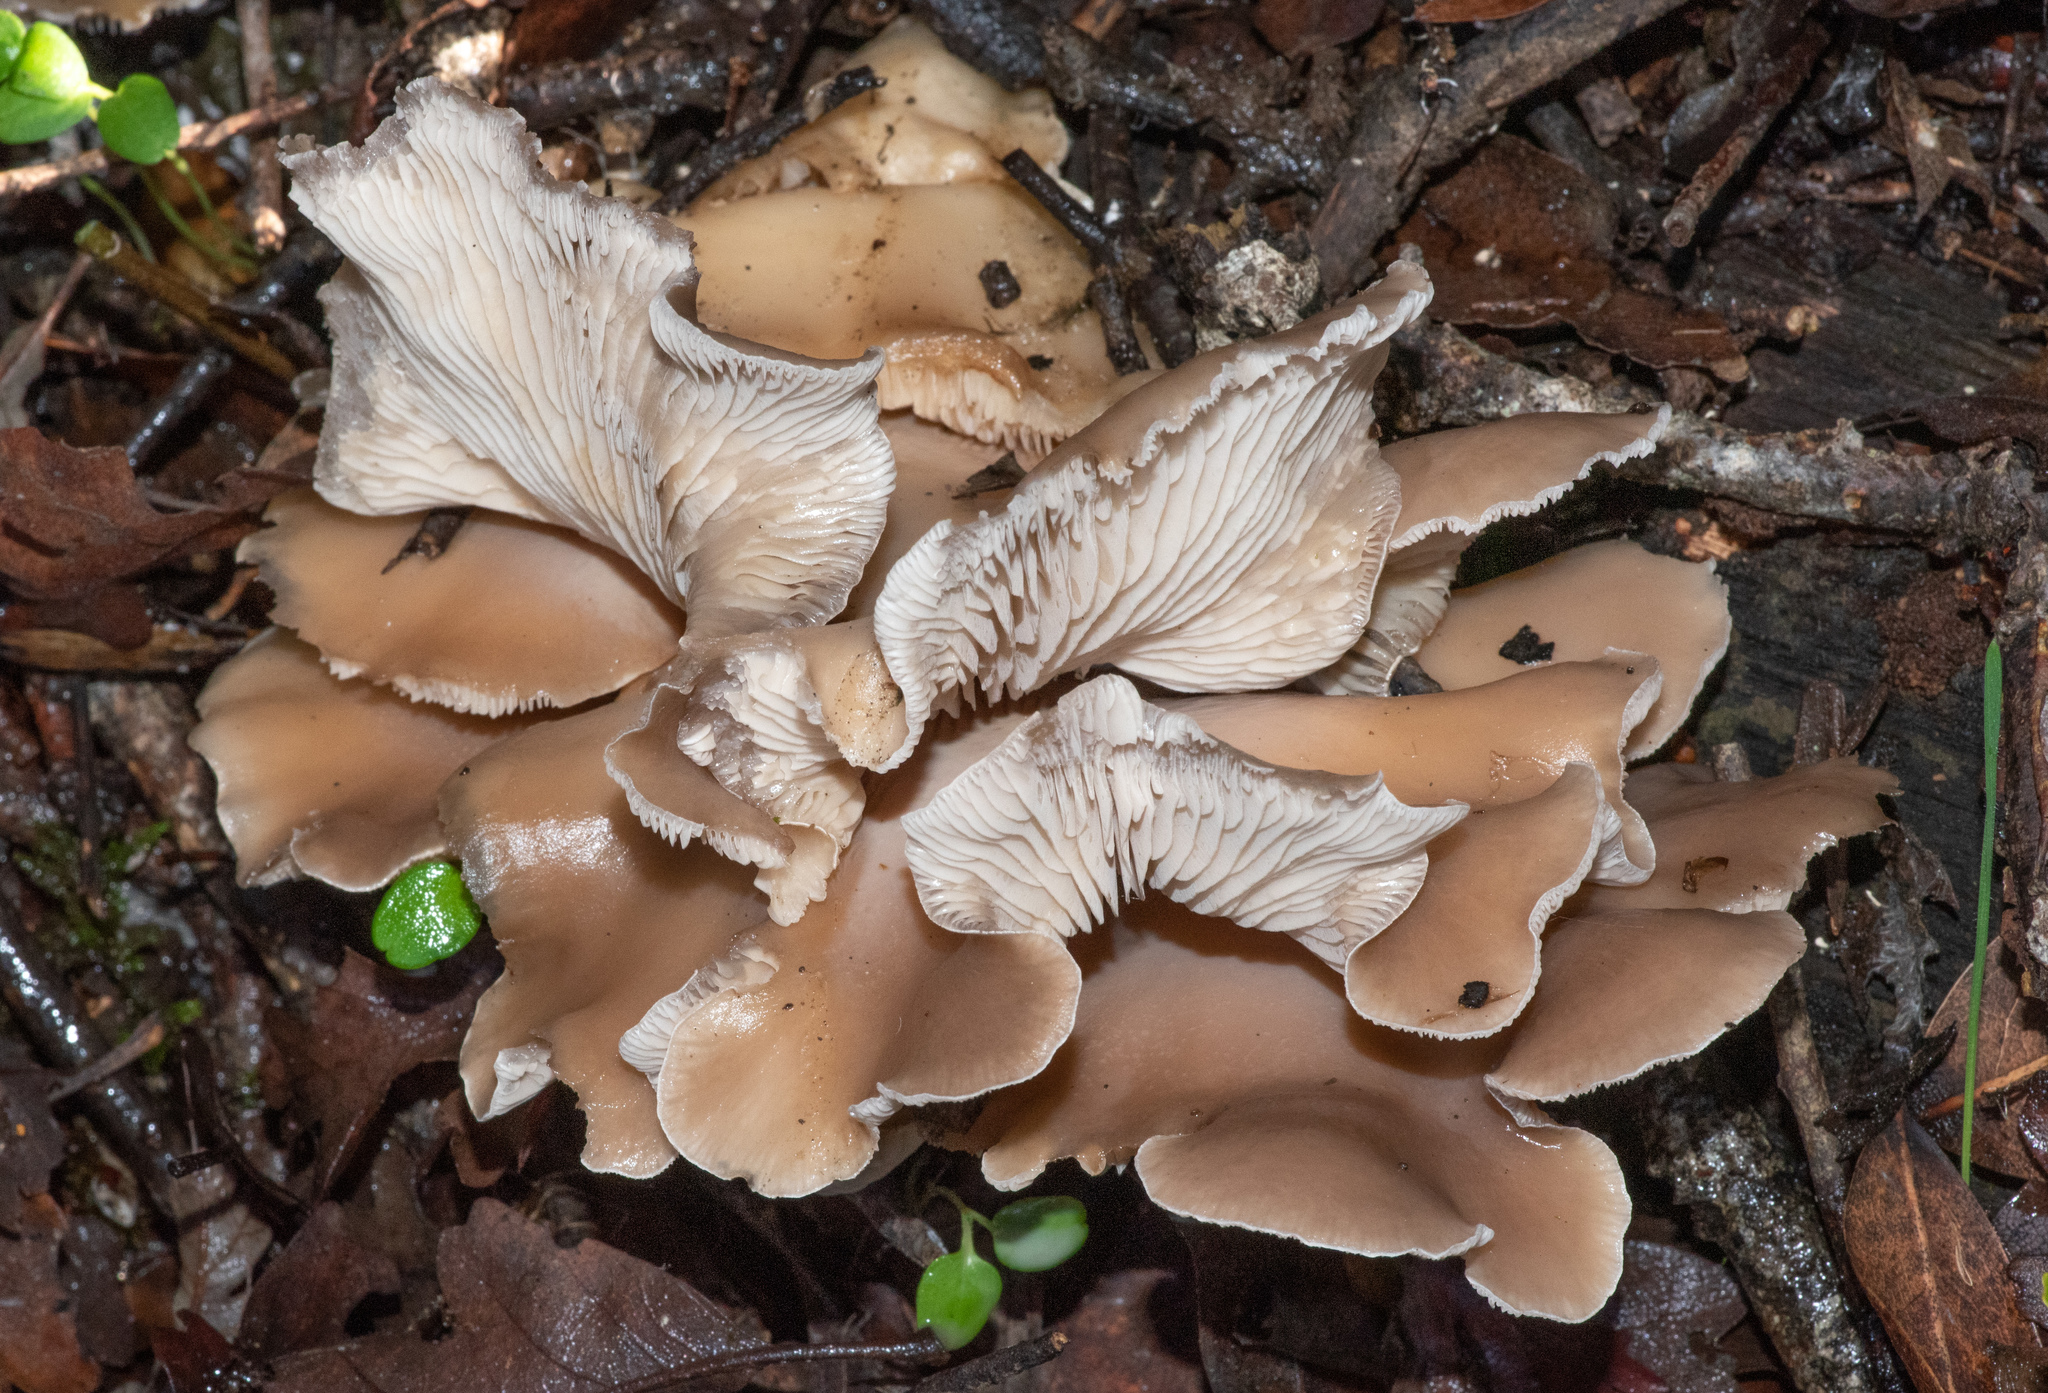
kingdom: Fungi
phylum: Basidiomycota
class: Agaricomycetes
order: Agaricales
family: Pleurotaceae
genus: Pleurotus
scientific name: Pleurotus ostreatus
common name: Oyster mushroom
